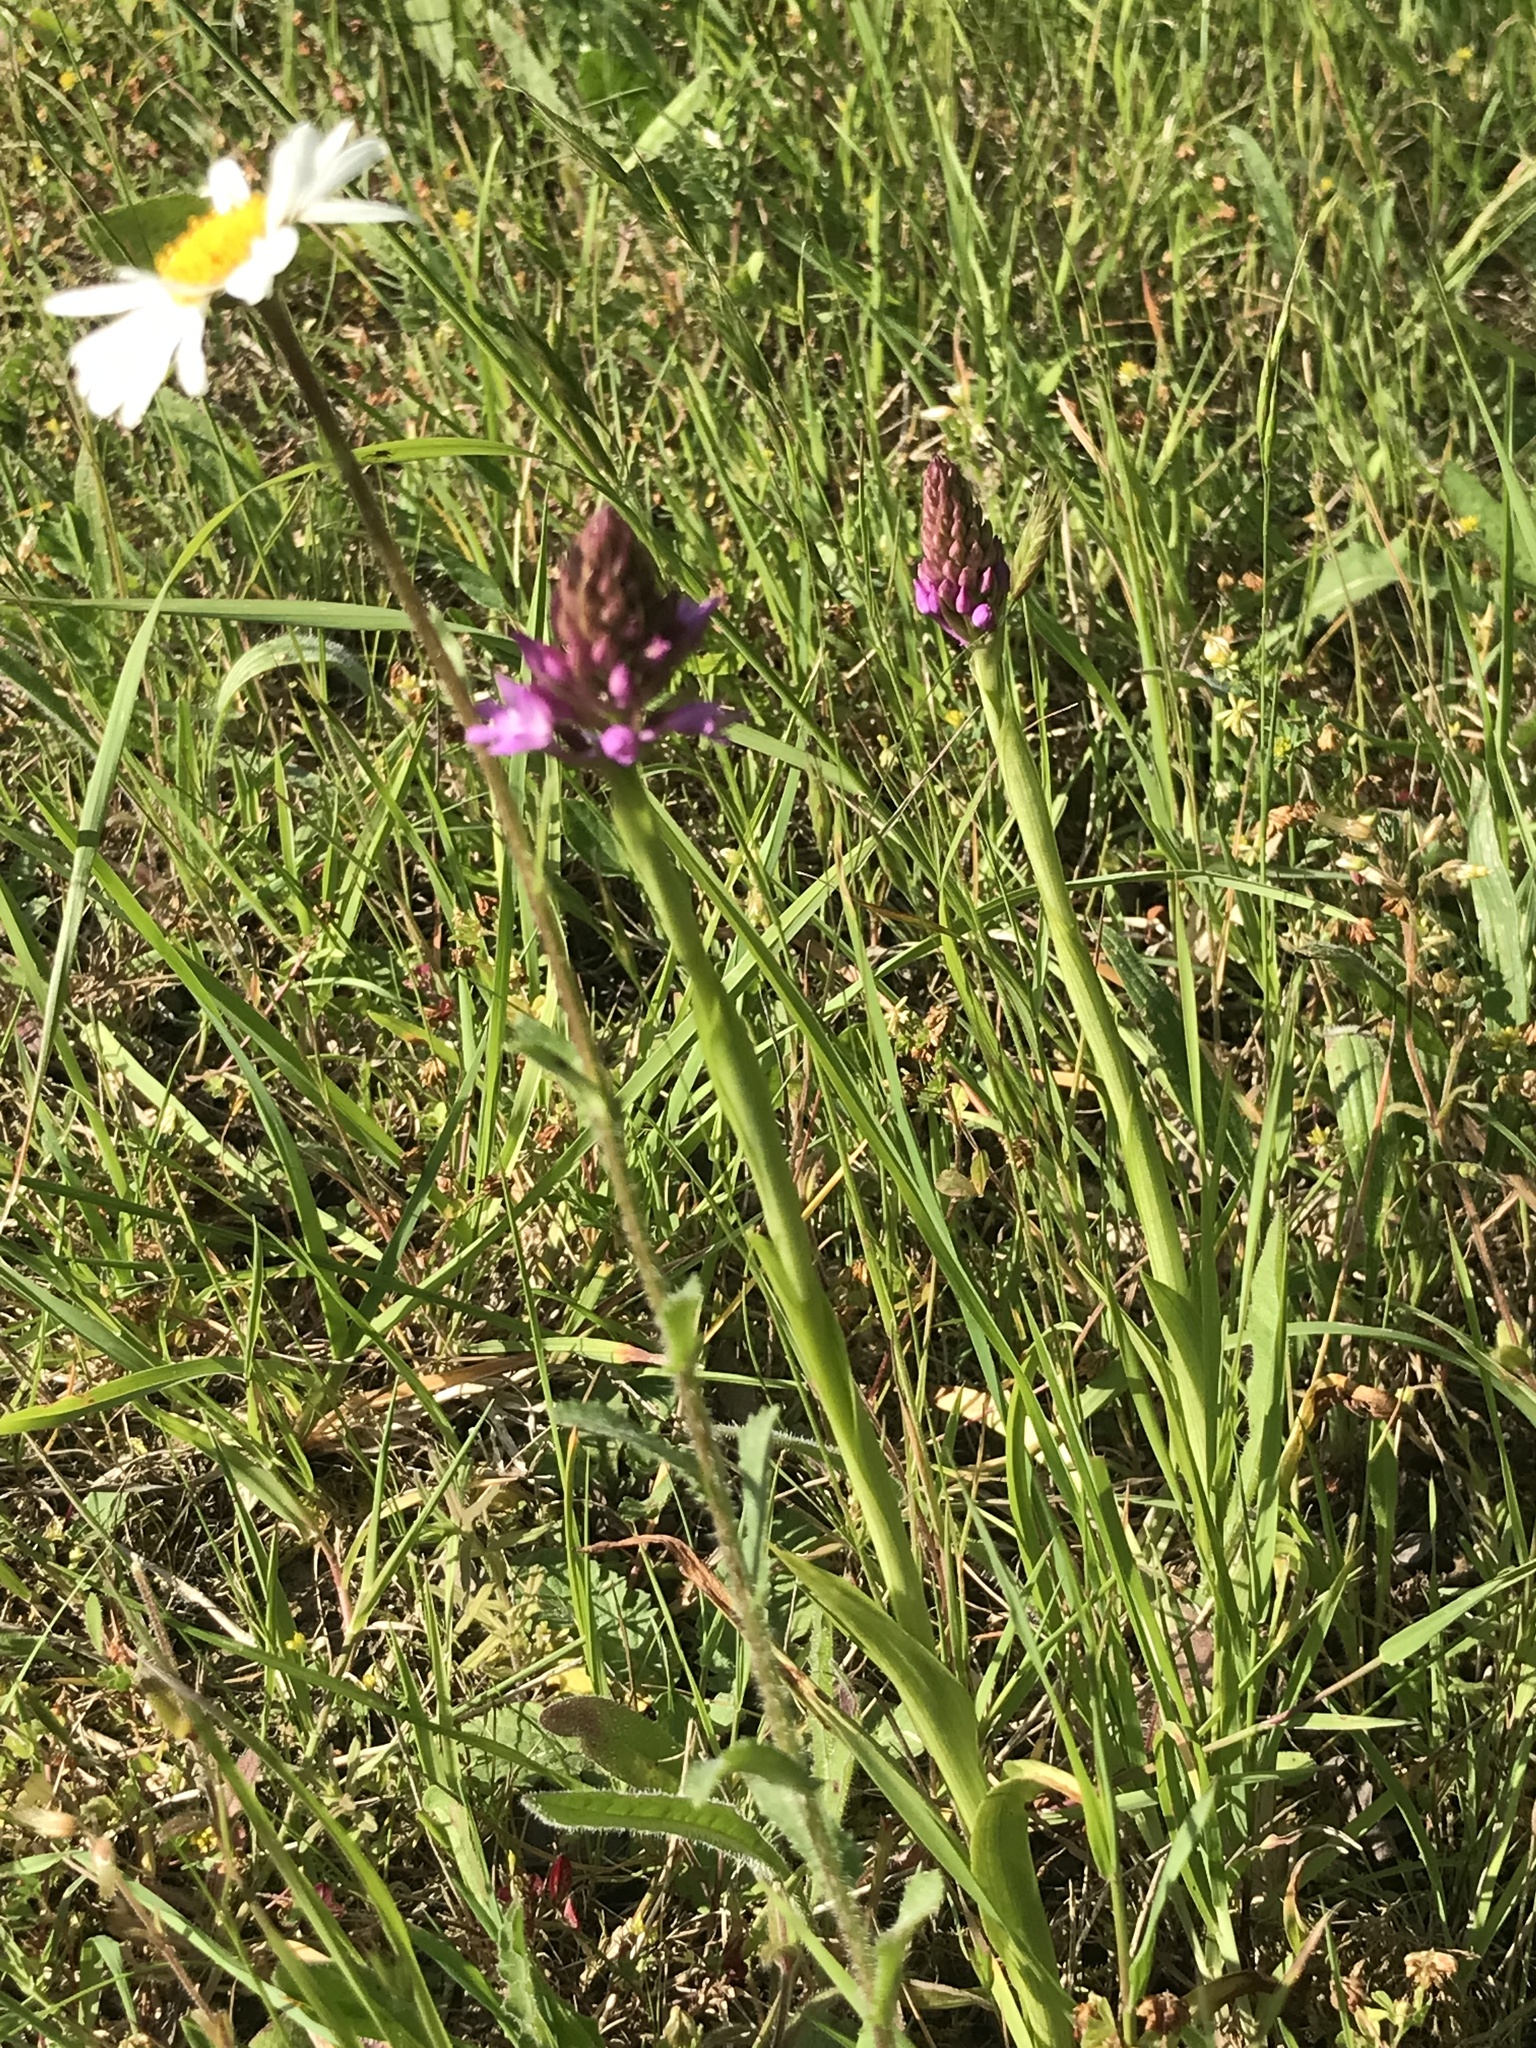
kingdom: Plantae
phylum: Tracheophyta
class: Liliopsida
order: Asparagales
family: Orchidaceae
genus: Anacamptis
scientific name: Anacamptis pyramidalis
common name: Pyramidal orchid
